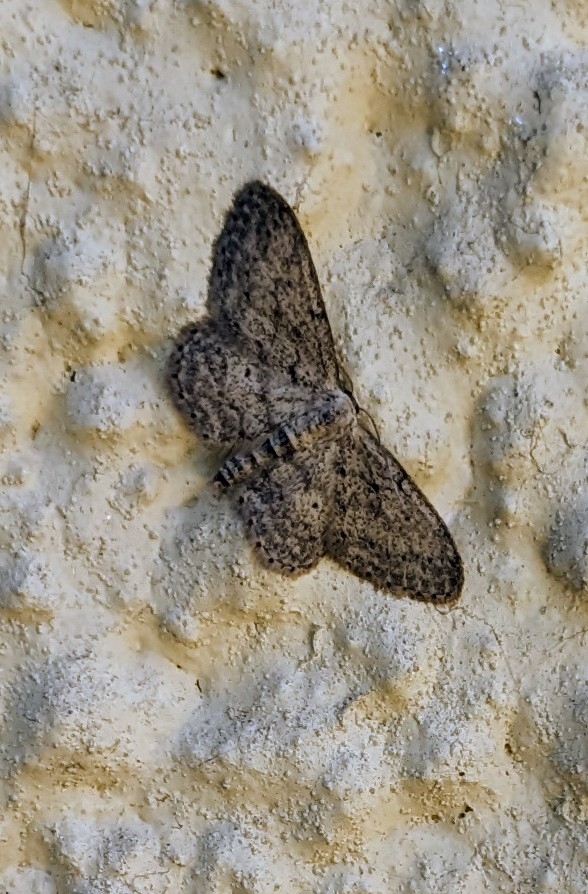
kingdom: Animalia
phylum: Arthropoda
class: Insecta
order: Lepidoptera
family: Geometridae
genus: Idaea
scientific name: Idaea seriata
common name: Small dusty wave
